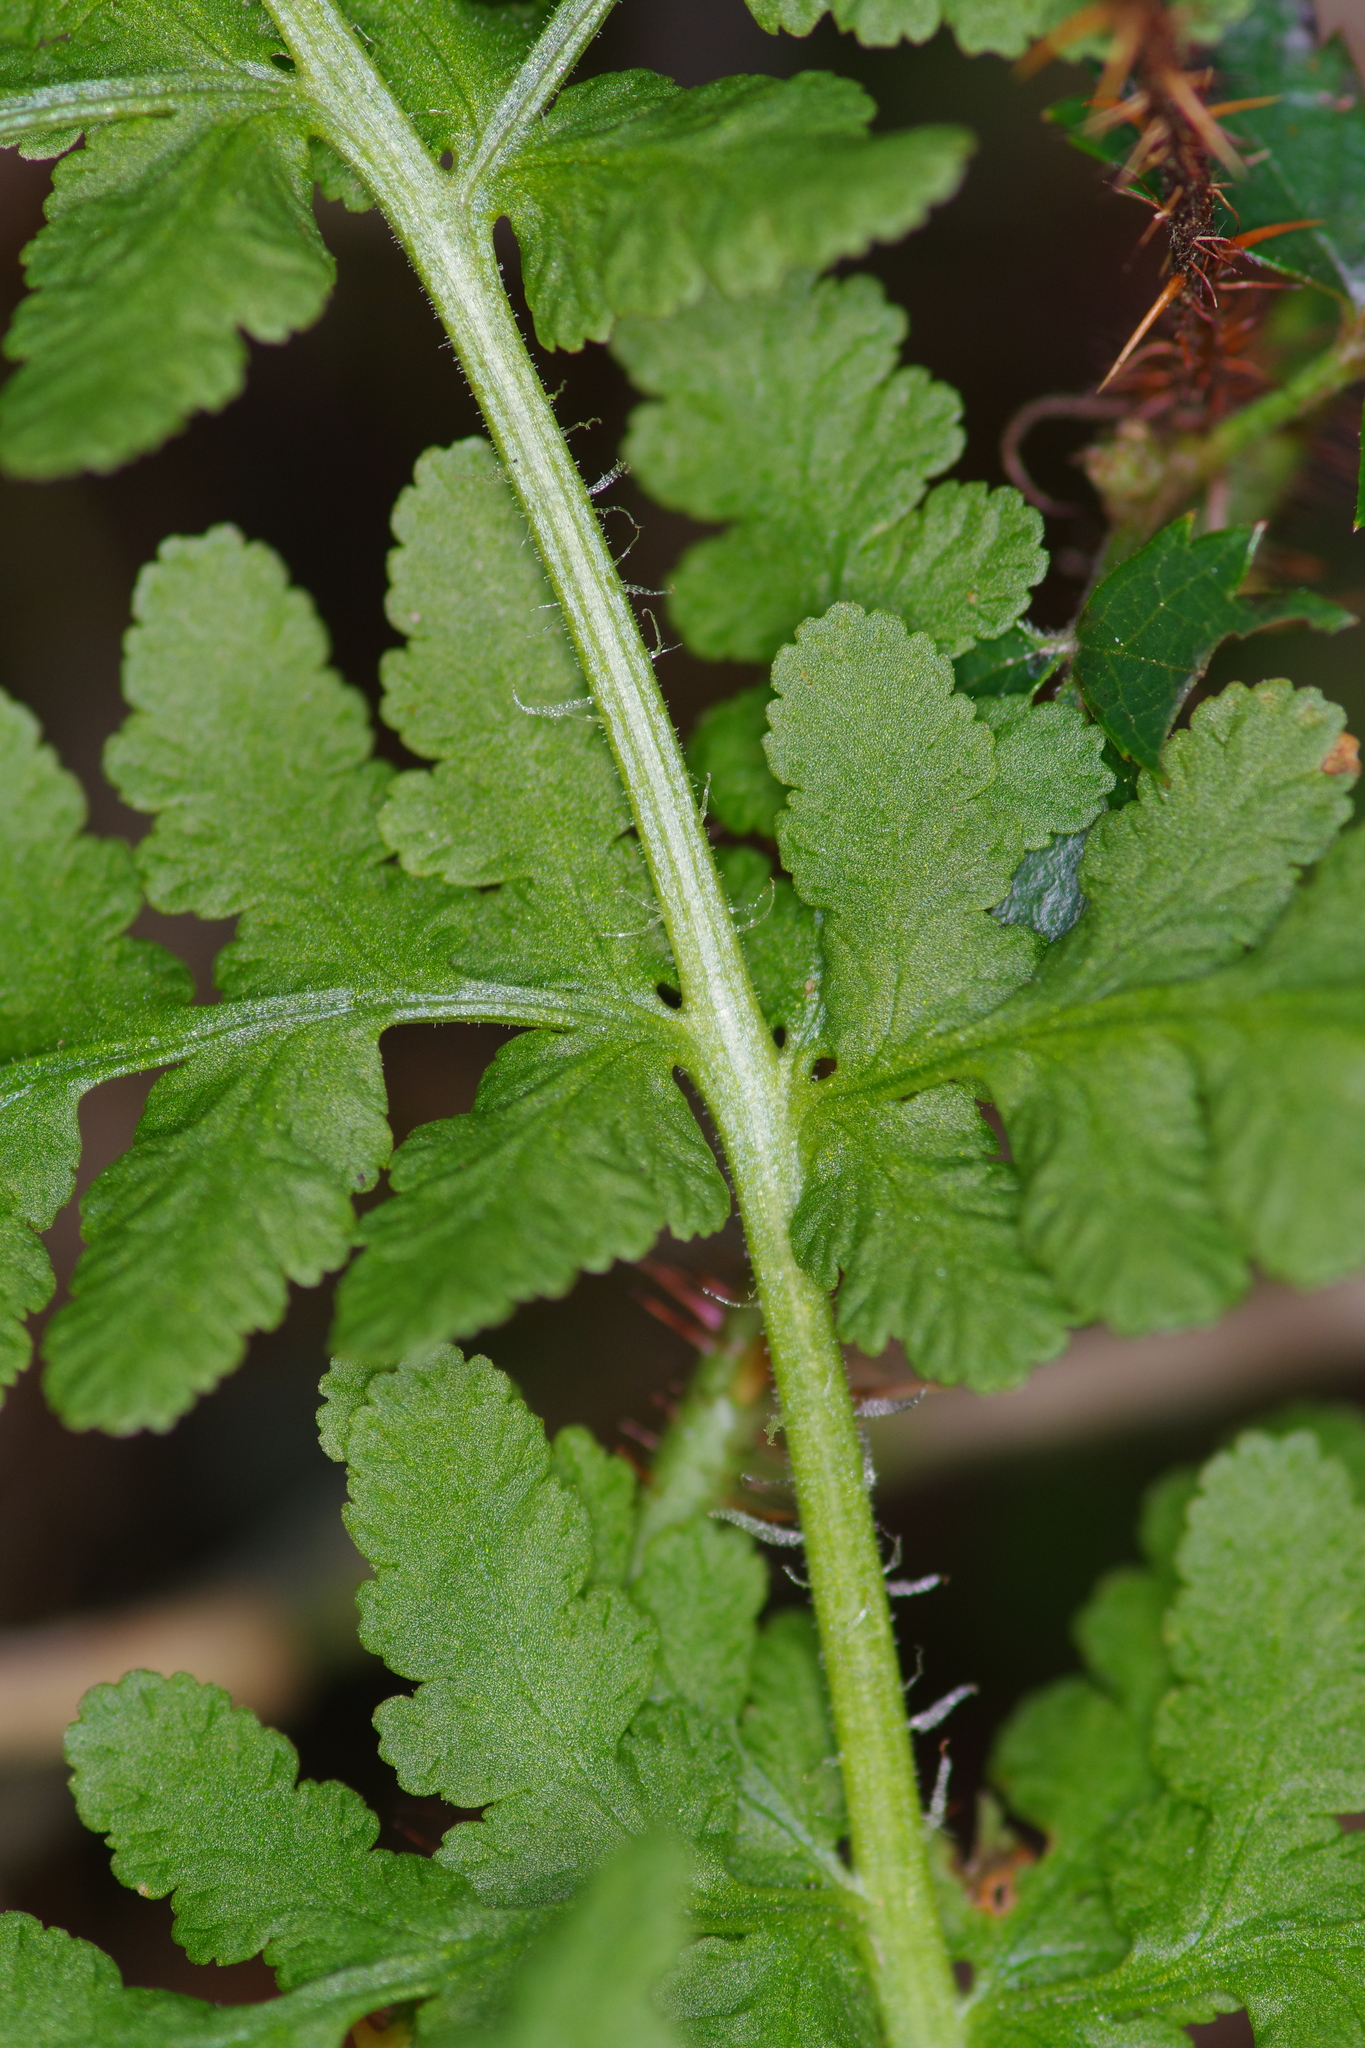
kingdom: Plantae
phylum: Tracheophyta
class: Polypodiopsida
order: Polypodiales
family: Woodsiaceae
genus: Physematium
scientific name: Physematium obtusum
